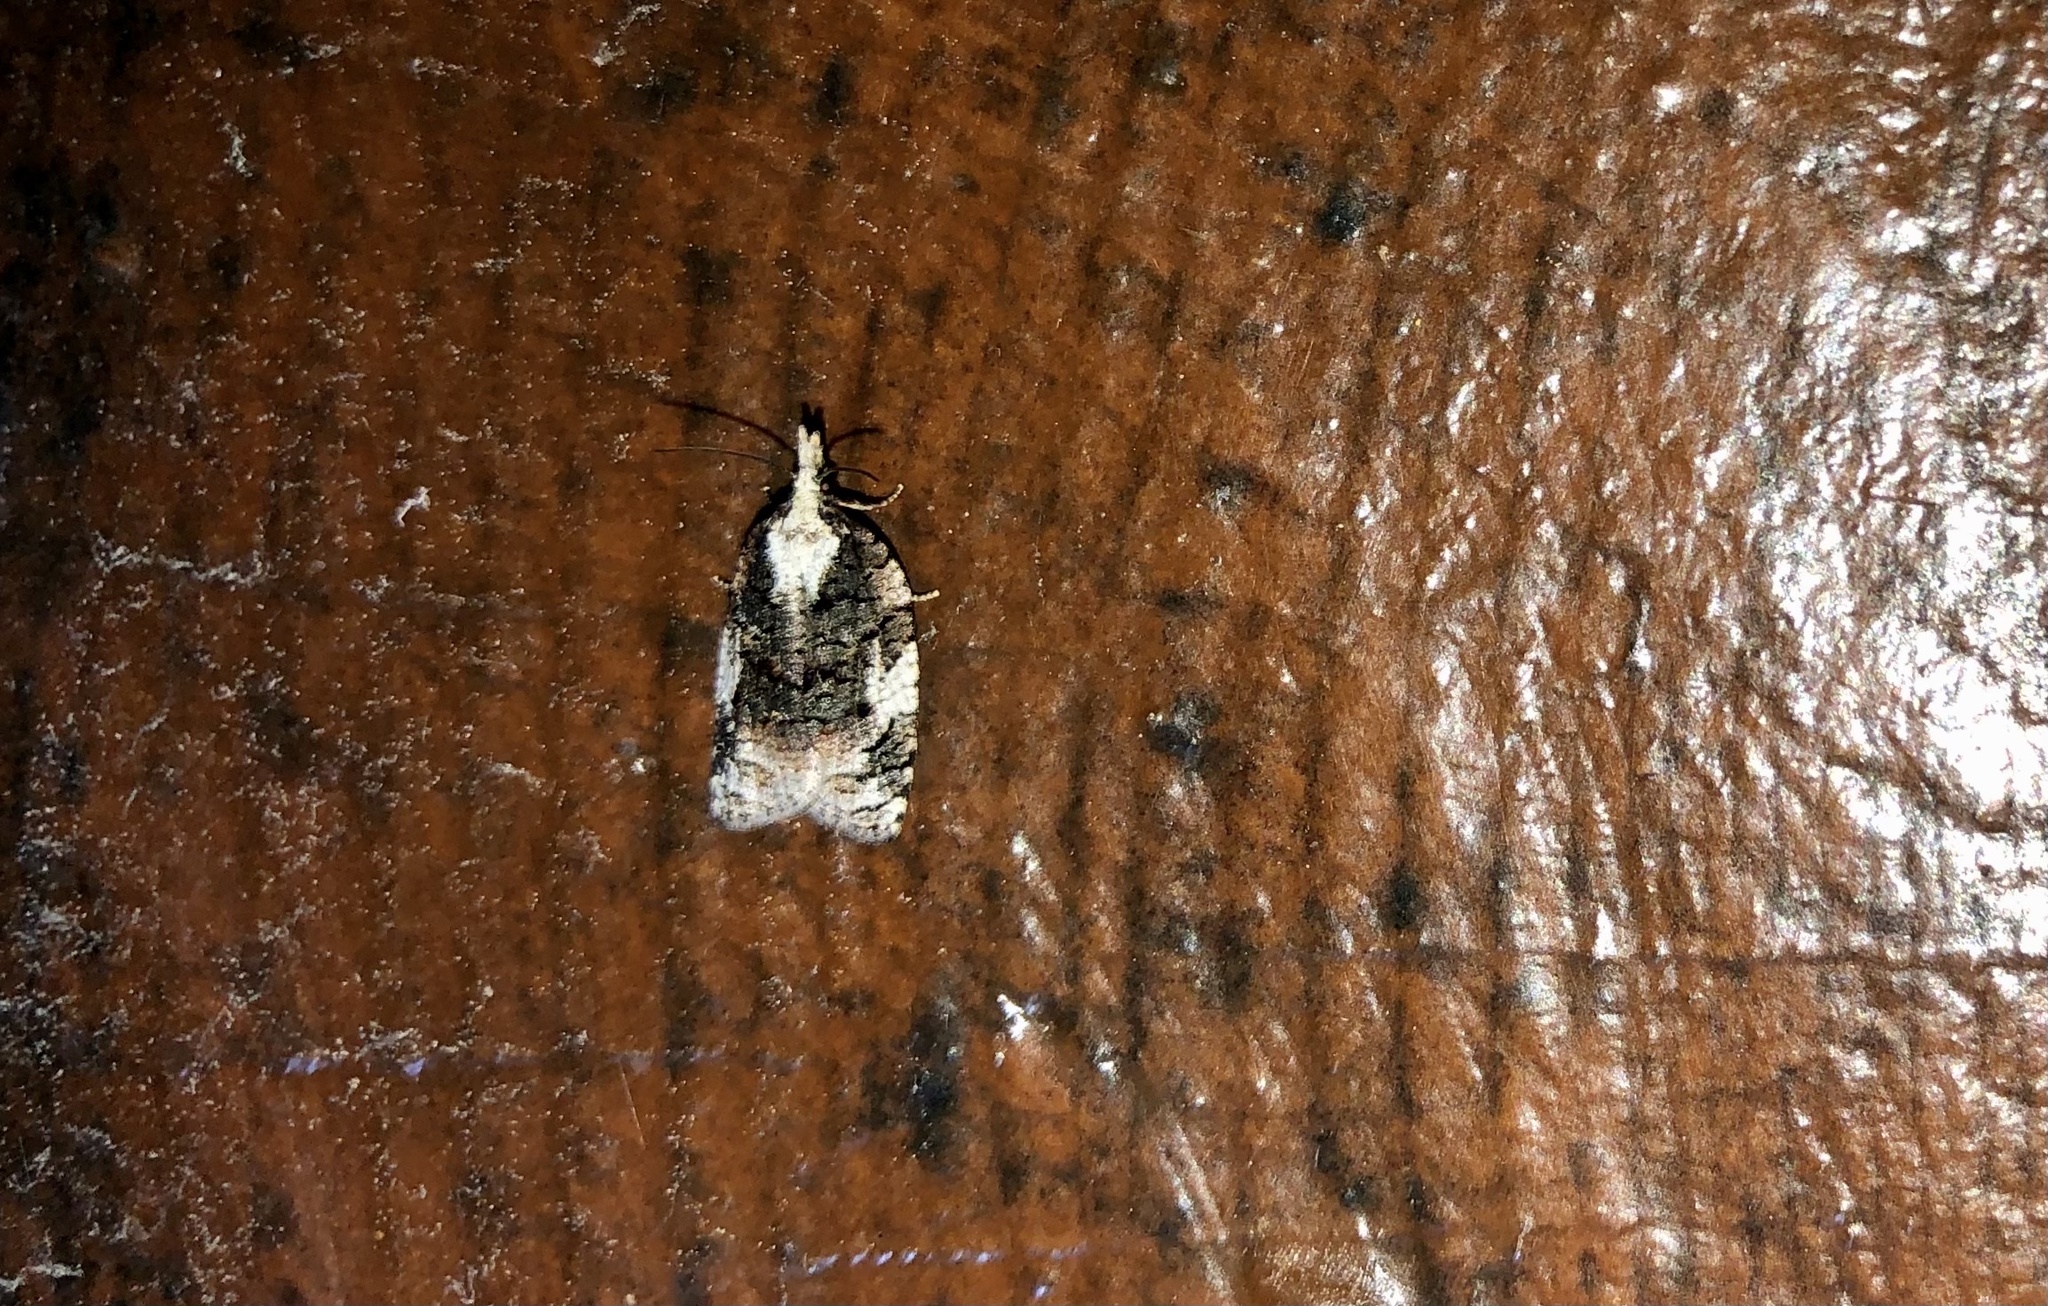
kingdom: Animalia
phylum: Arthropoda
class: Insecta
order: Lepidoptera
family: Tortricidae
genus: Platynota
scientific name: Platynota exasperatana
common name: Exasperating platynota moth
